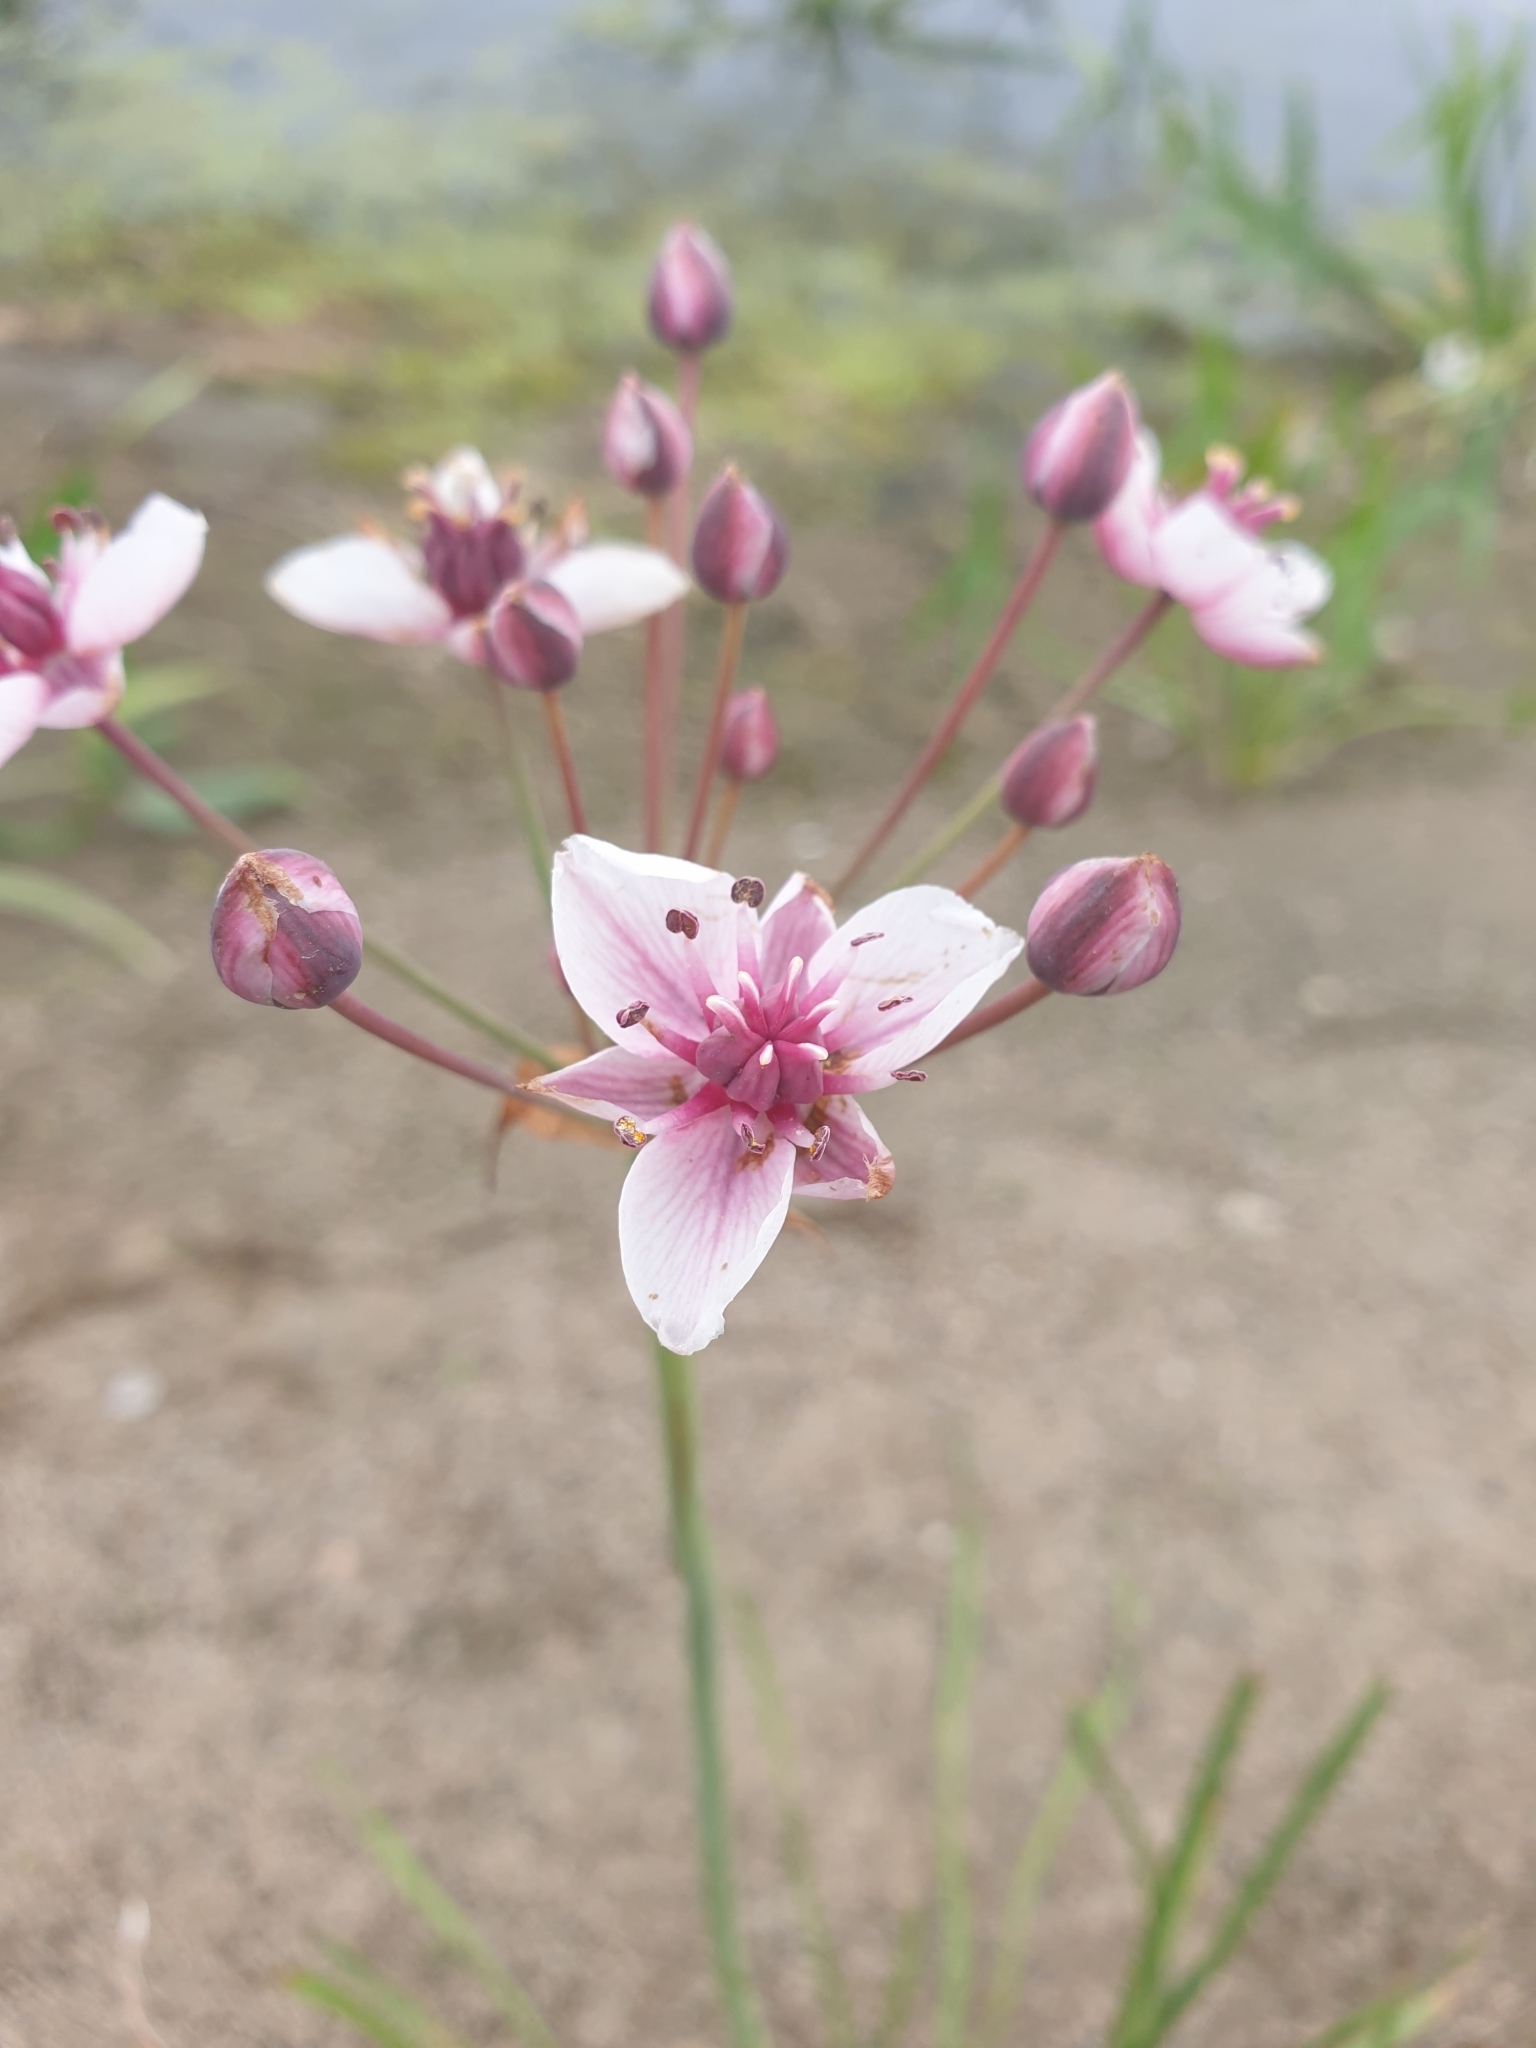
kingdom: Plantae
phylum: Tracheophyta
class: Liliopsida
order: Alismatales
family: Butomaceae
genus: Butomus
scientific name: Butomus umbellatus
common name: Flowering-rush
